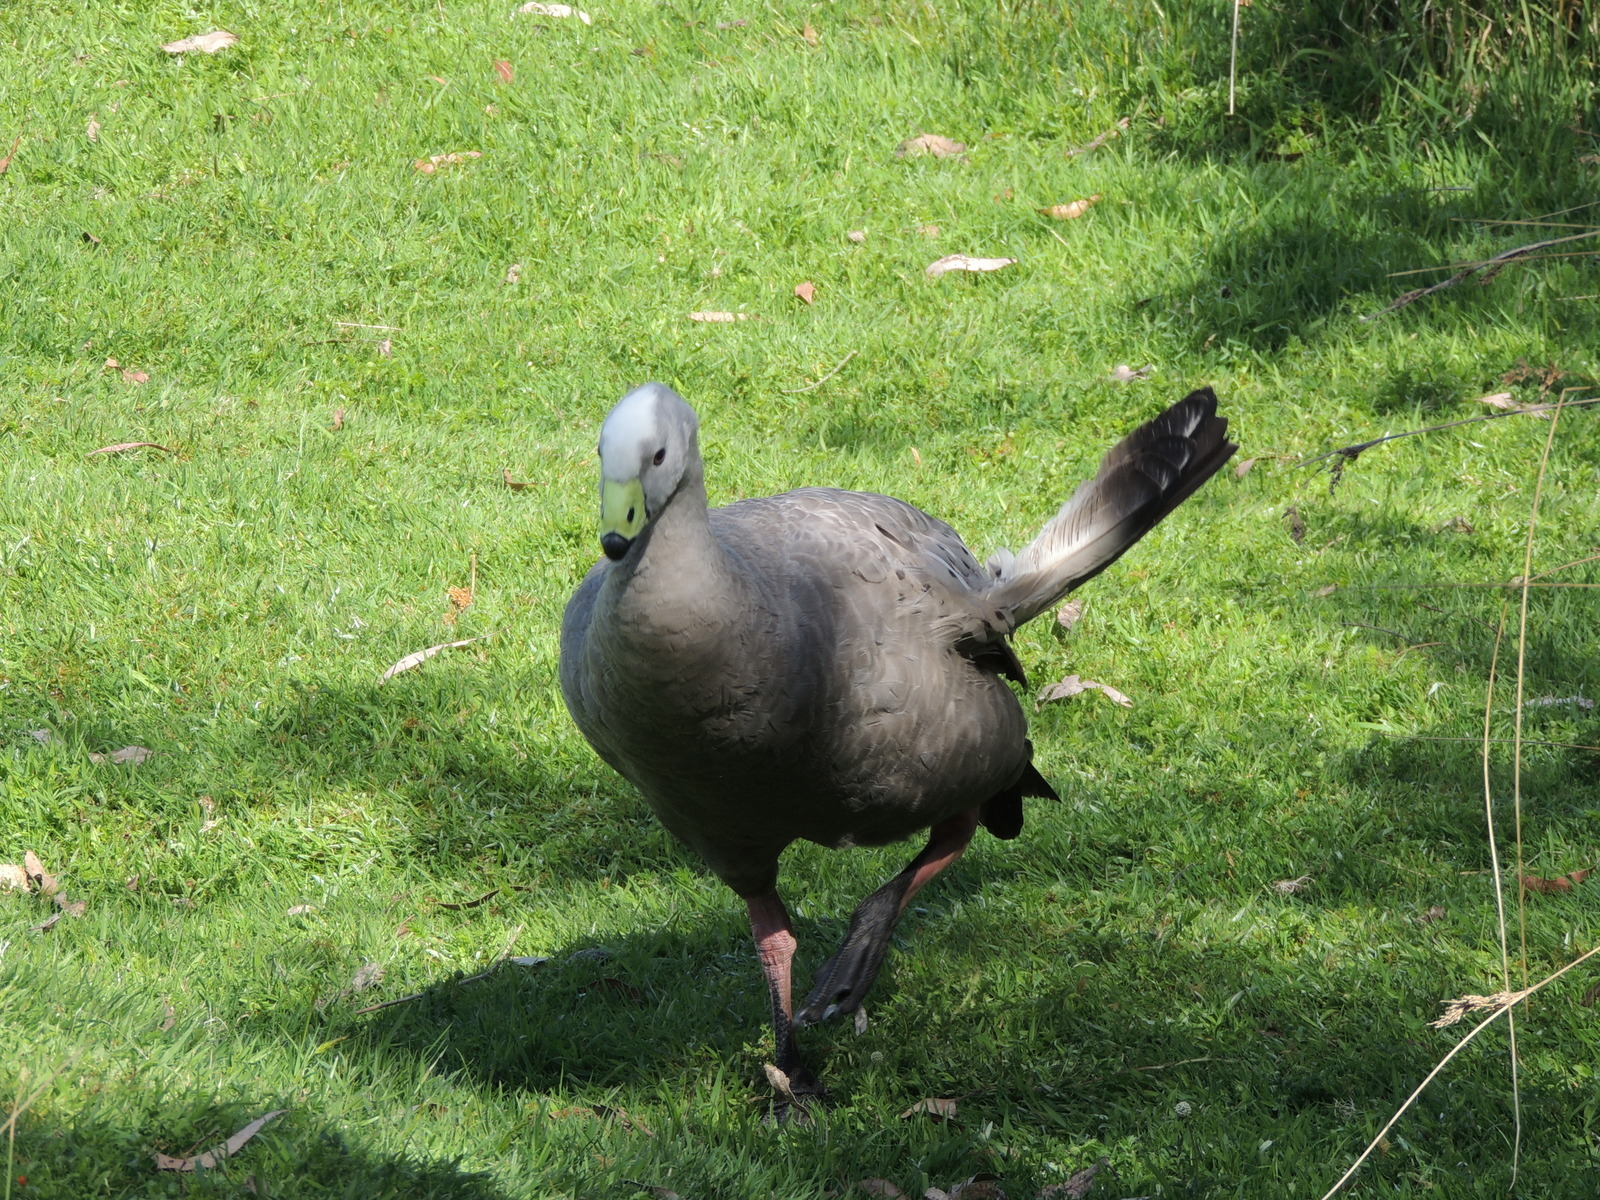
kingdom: Animalia
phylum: Chordata
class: Aves
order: Anseriformes
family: Anatidae
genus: Cereopsis
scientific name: Cereopsis novaehollandiae
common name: Cape barren goose
